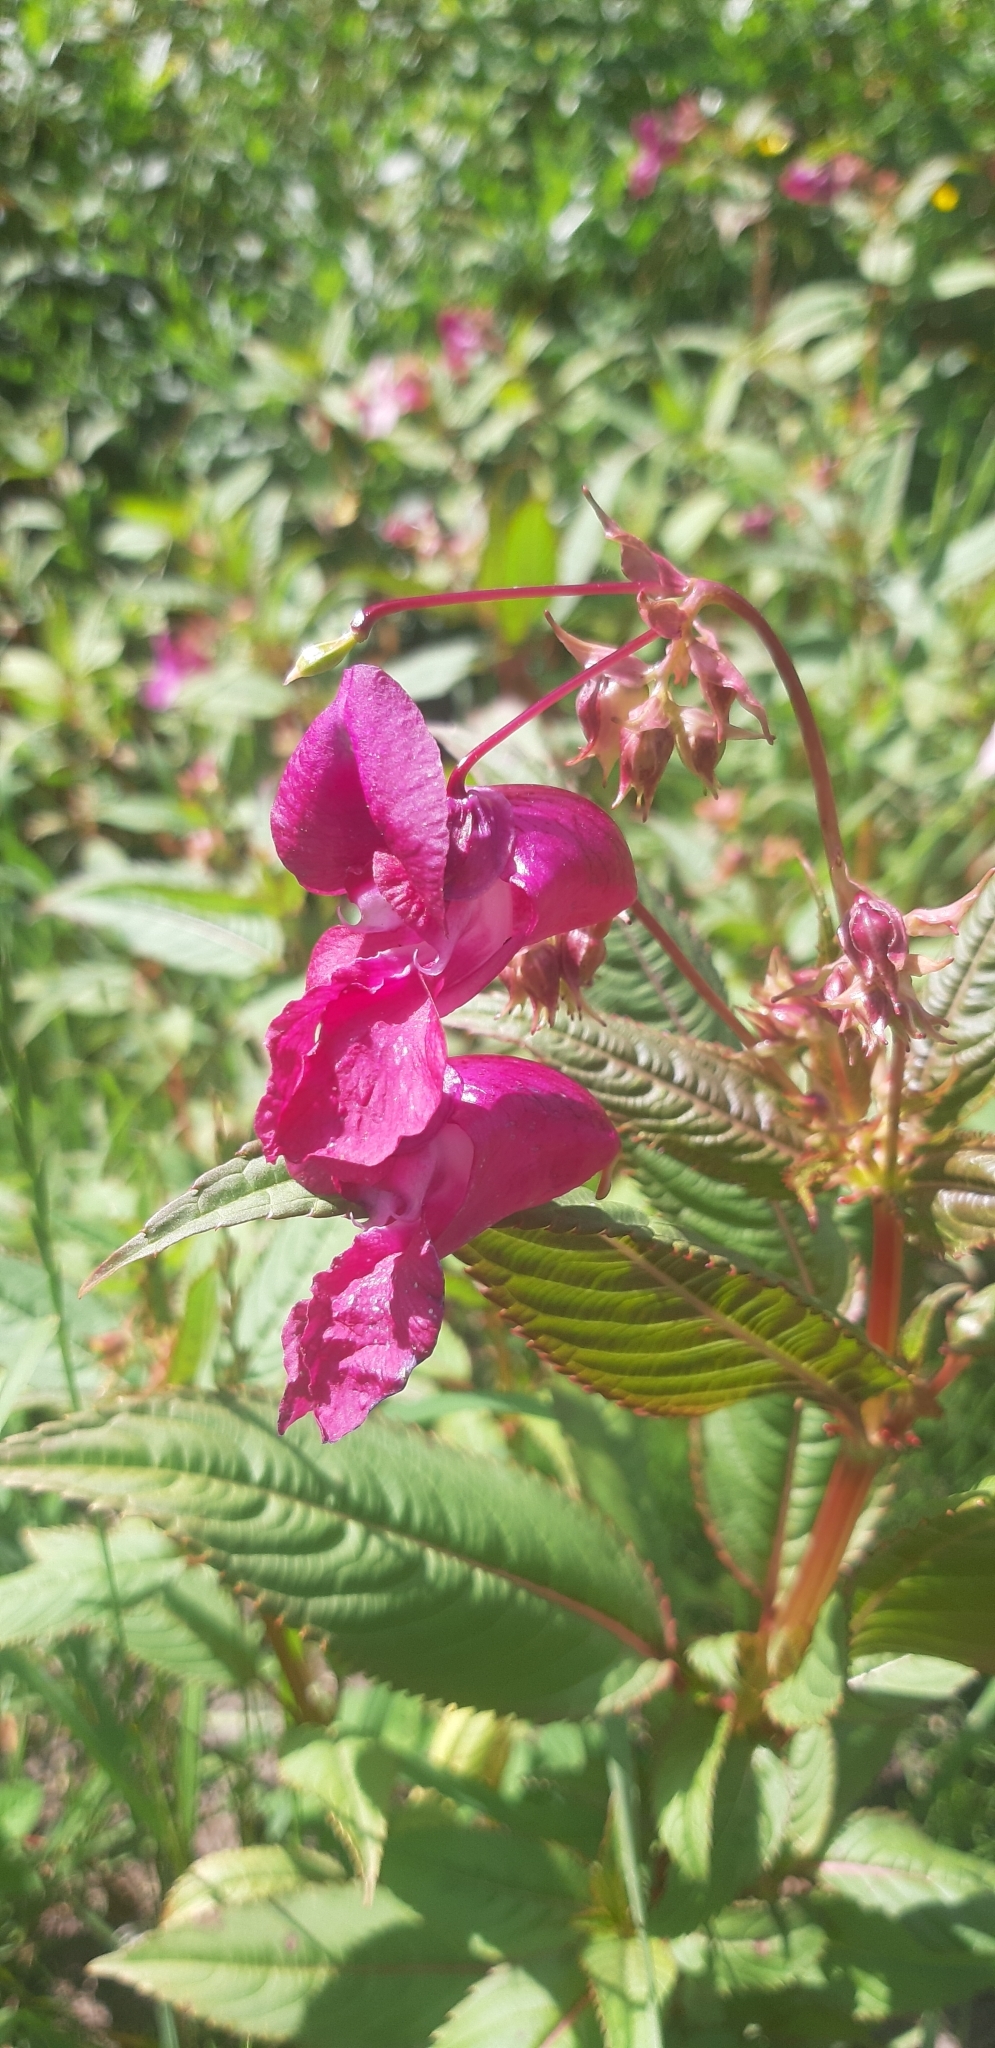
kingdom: Plantae
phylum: Tracheophyta
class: Magnoliopsida
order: Ericales
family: Balsaminaceae
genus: Impatiens
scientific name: Impatiens glandulifera
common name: Himalayan balsam
